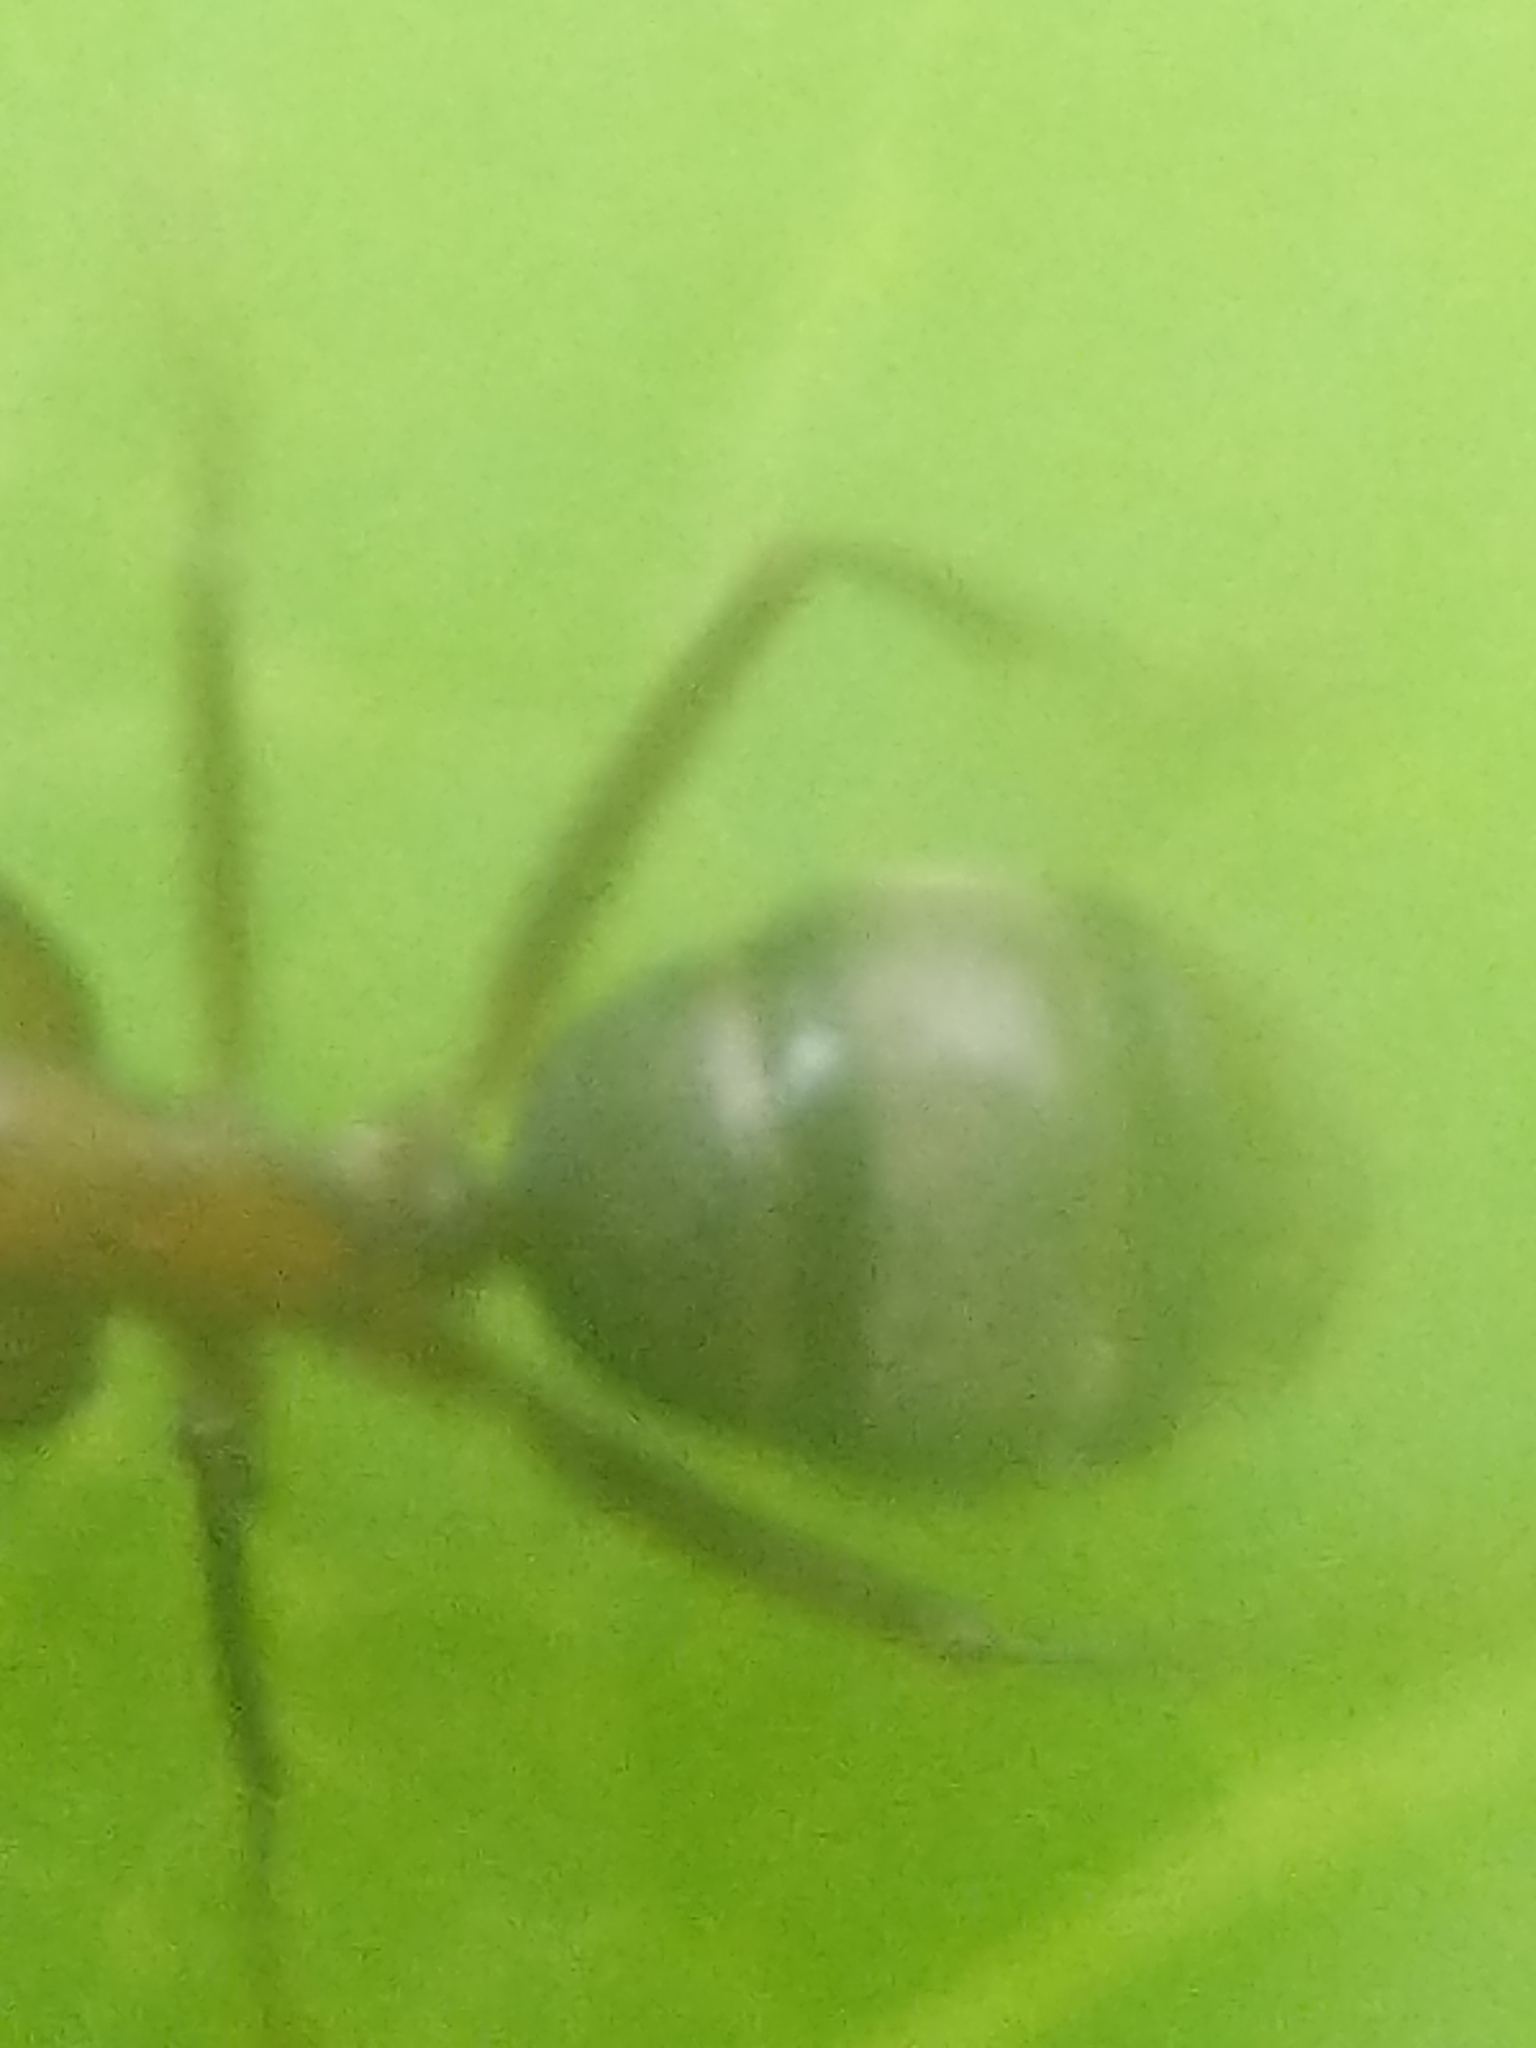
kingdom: Animalia
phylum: Arthropoda
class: Insecta
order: Hymenoptera
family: Formicidae
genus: Camponotus
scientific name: Camponotus chromaiodes
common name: Red carpenter ant
